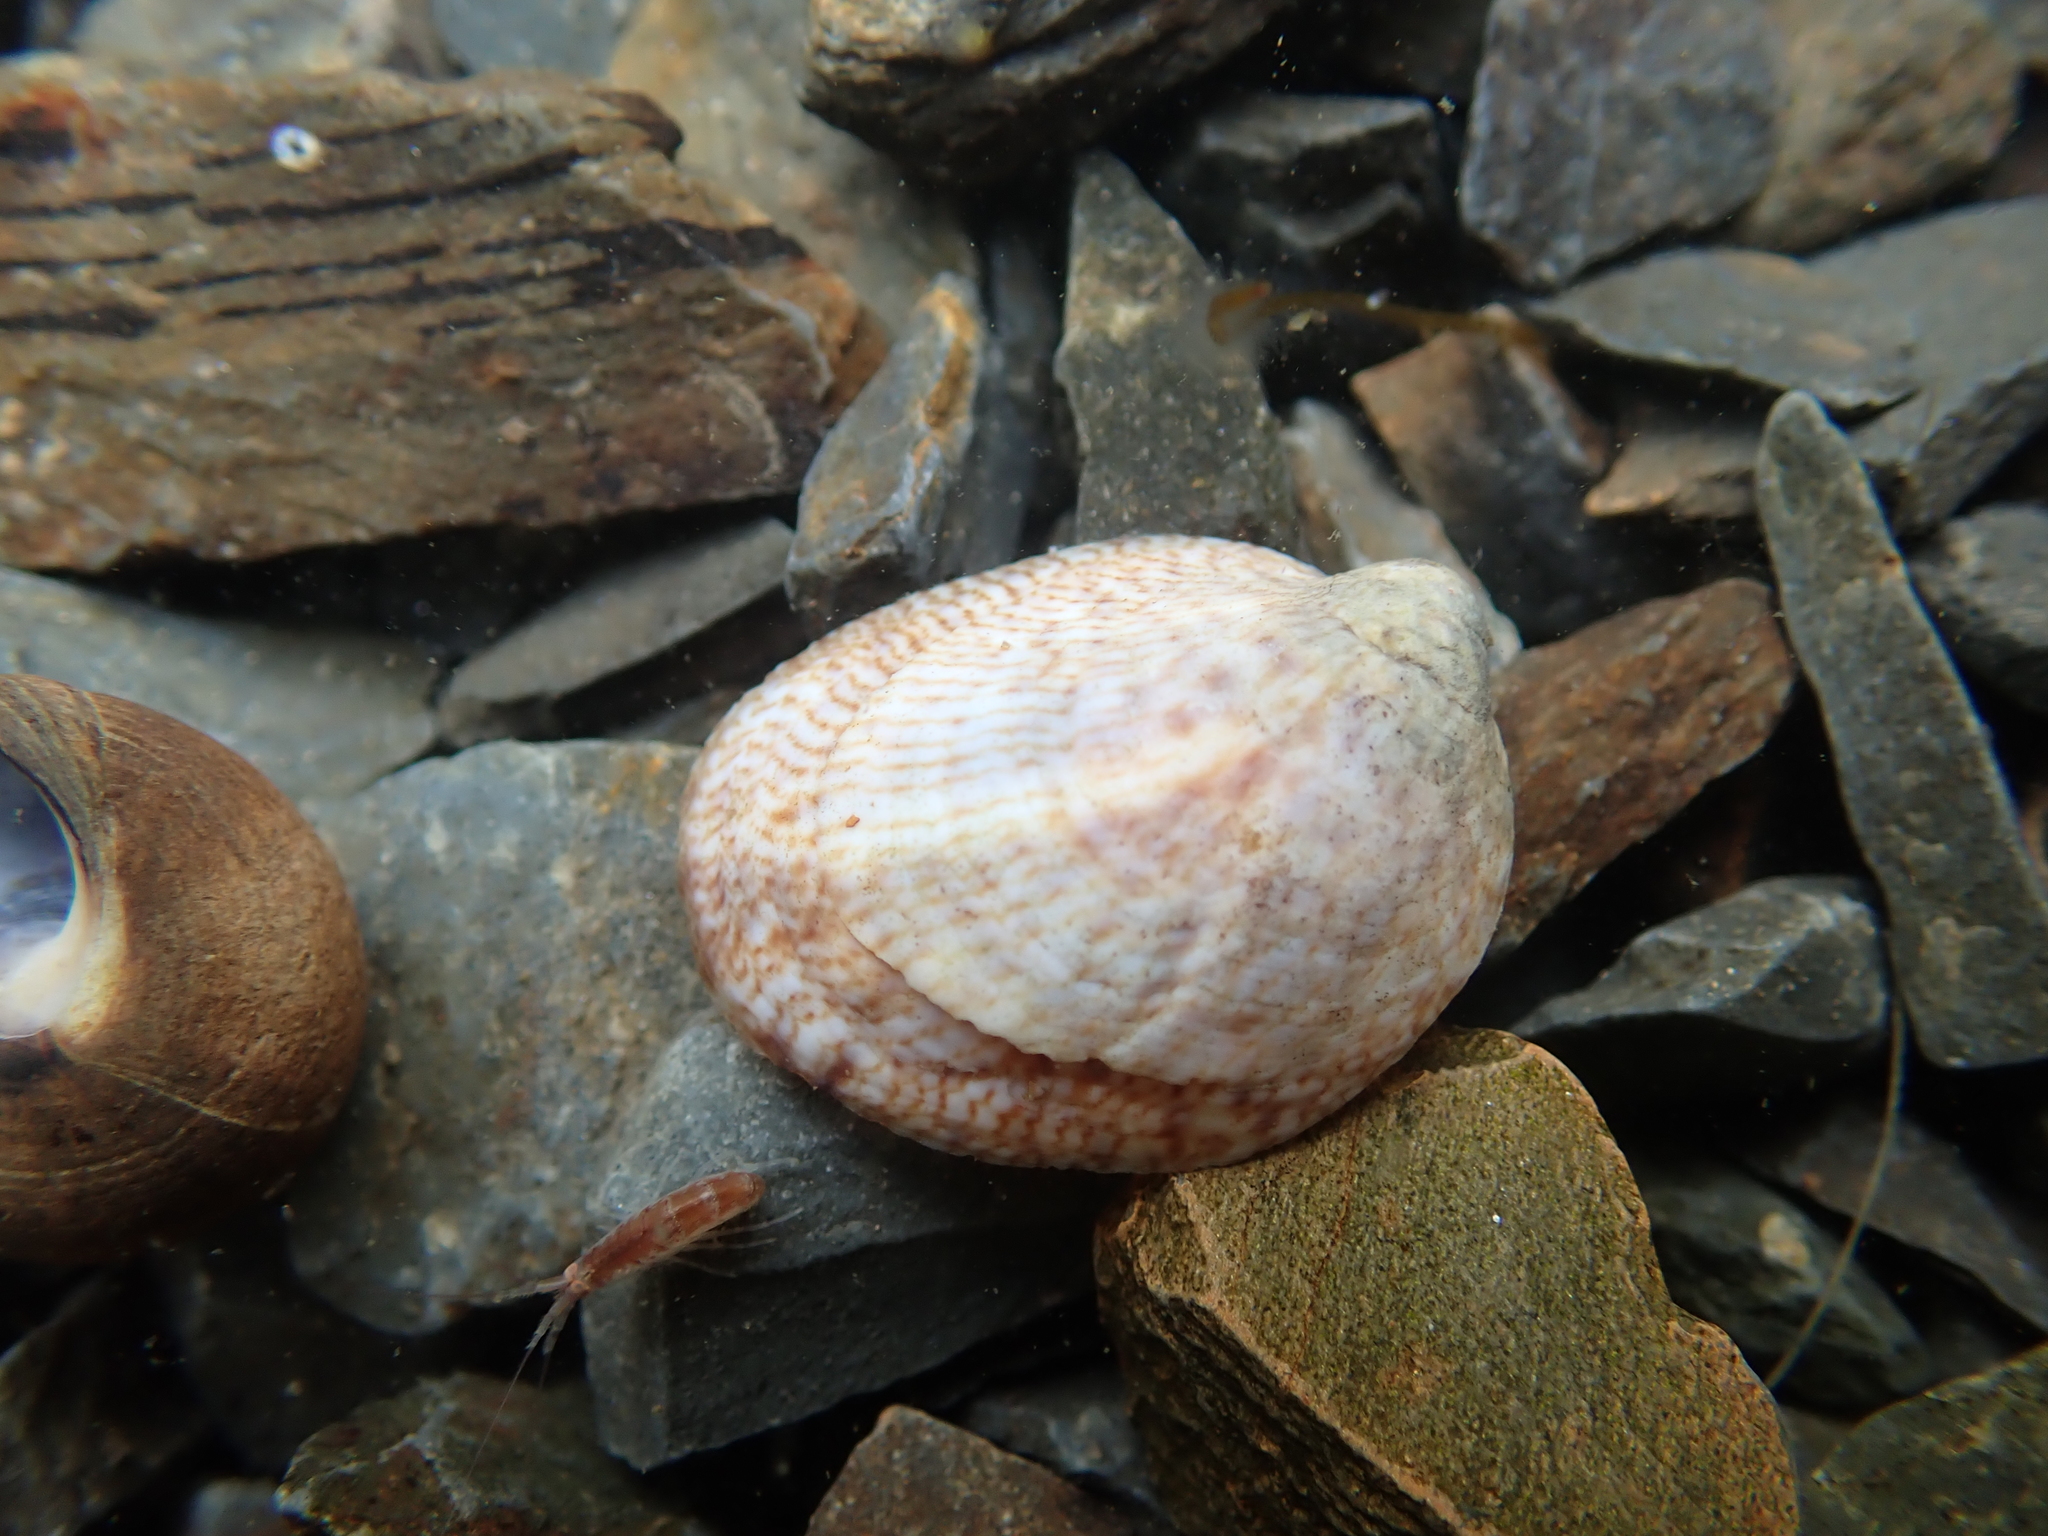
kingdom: Animalia
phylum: Mollusca
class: Gastropoda
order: Littorinimorpha
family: Calyptraeidae
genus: Crepidula
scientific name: Crepidula fornicata
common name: Slipper limpet
